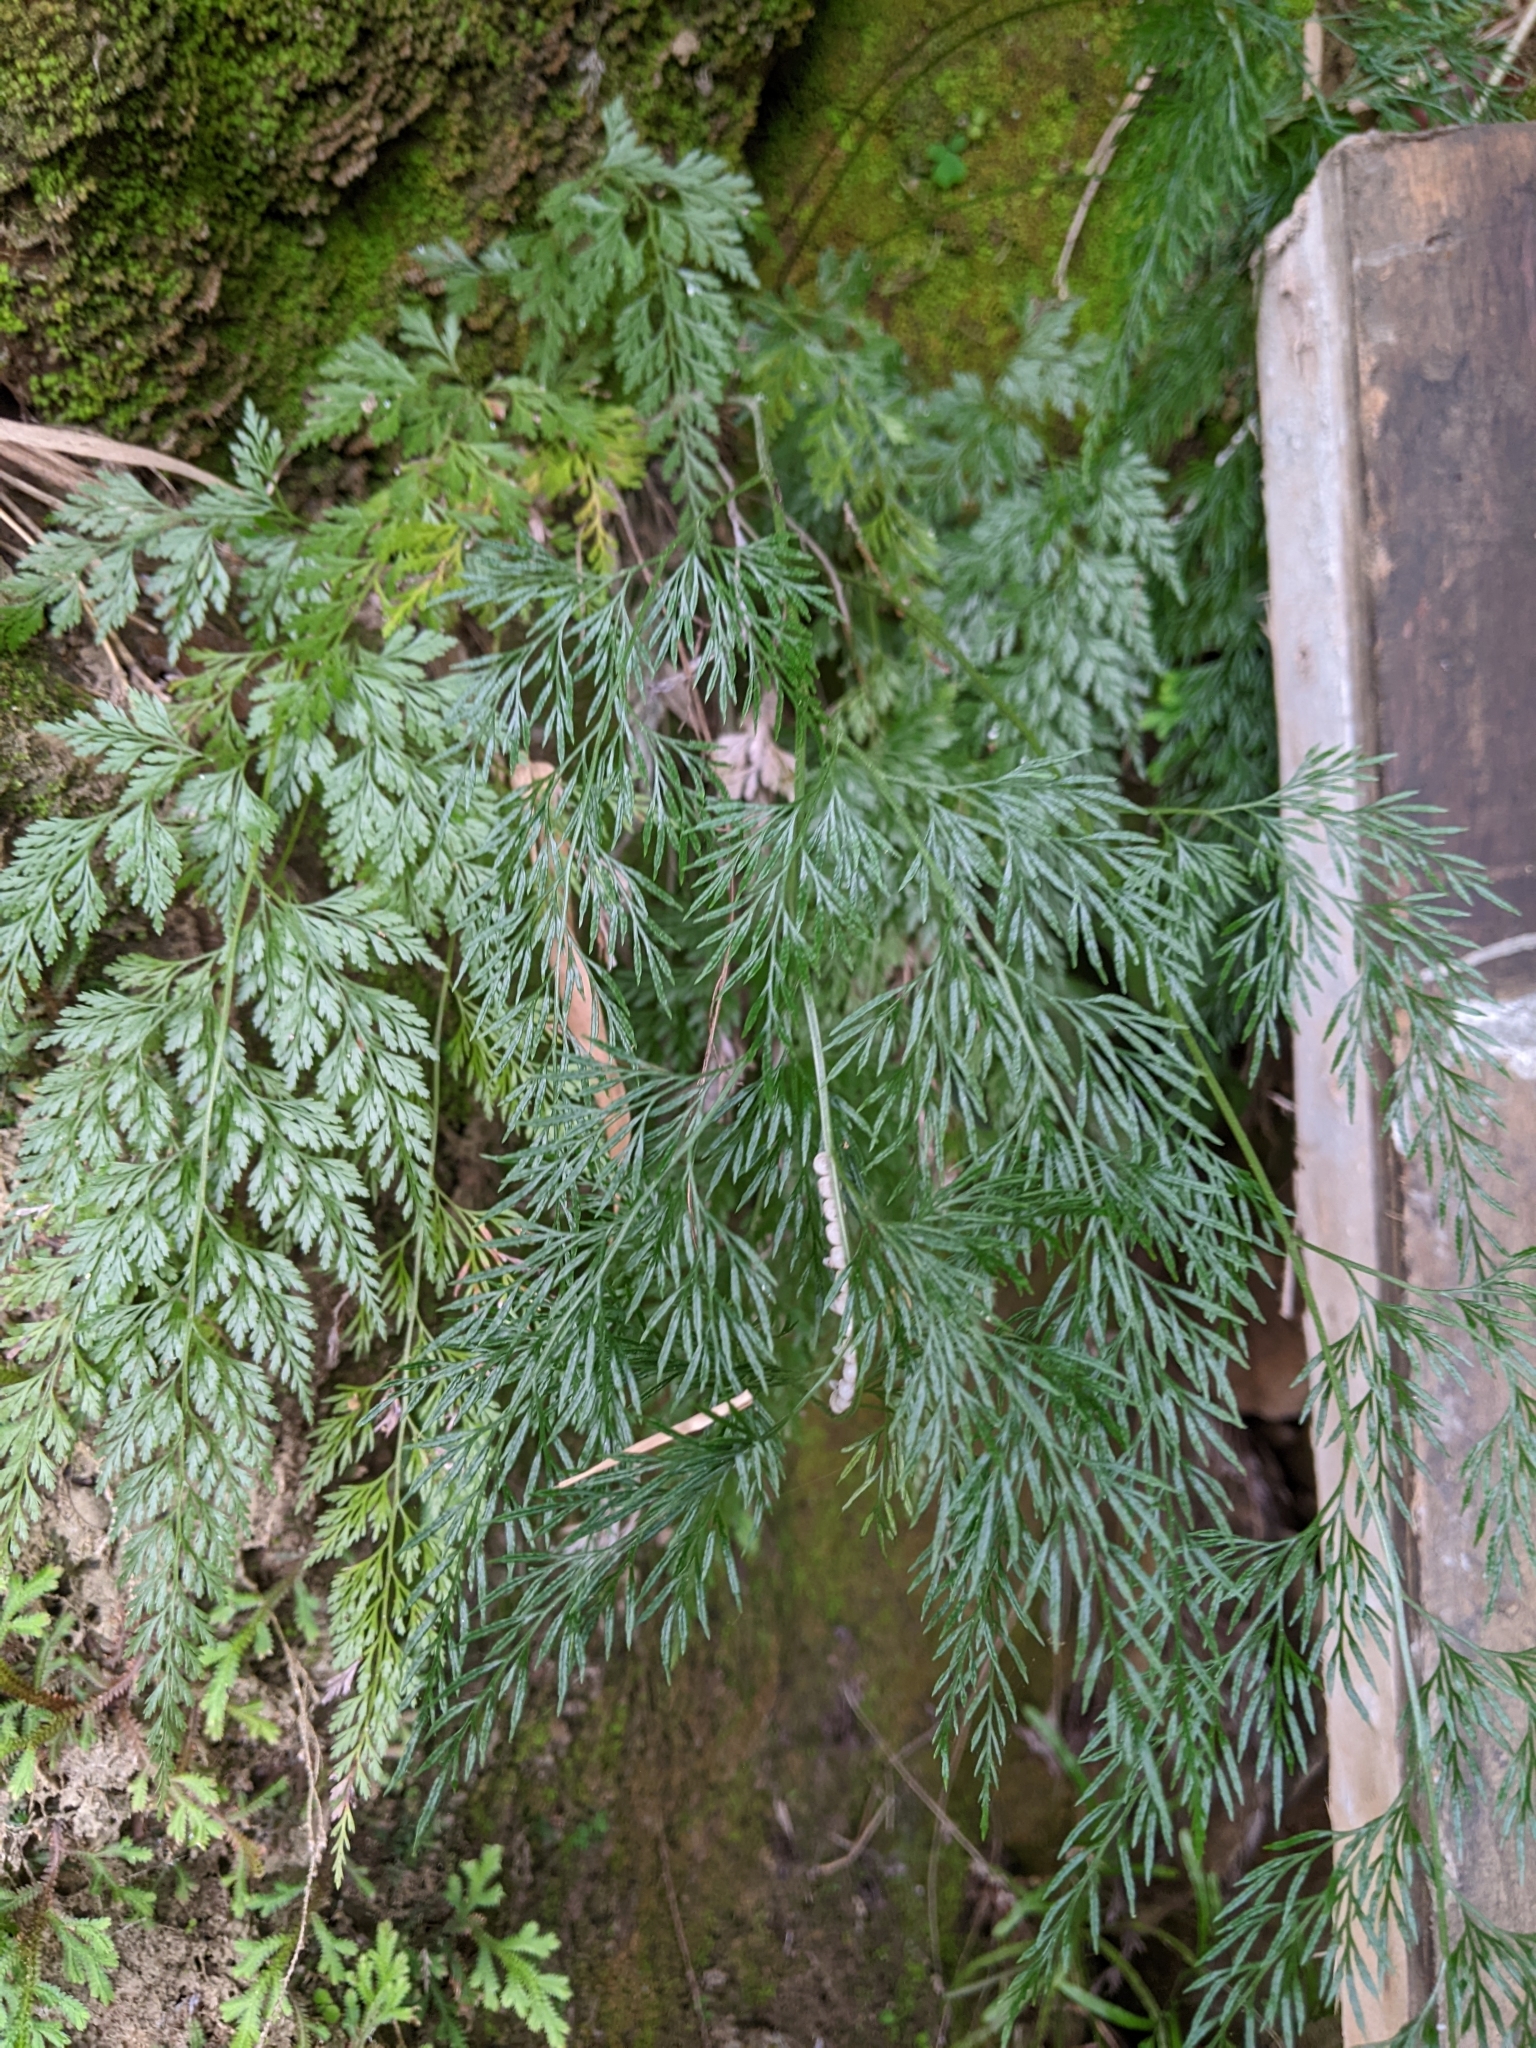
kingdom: Plantae
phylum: Tracheophyta
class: Polypodiopsida
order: Polypodiales
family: Pteridaceae
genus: Onychium
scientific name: Onychium japonicum
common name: Carrot fern
